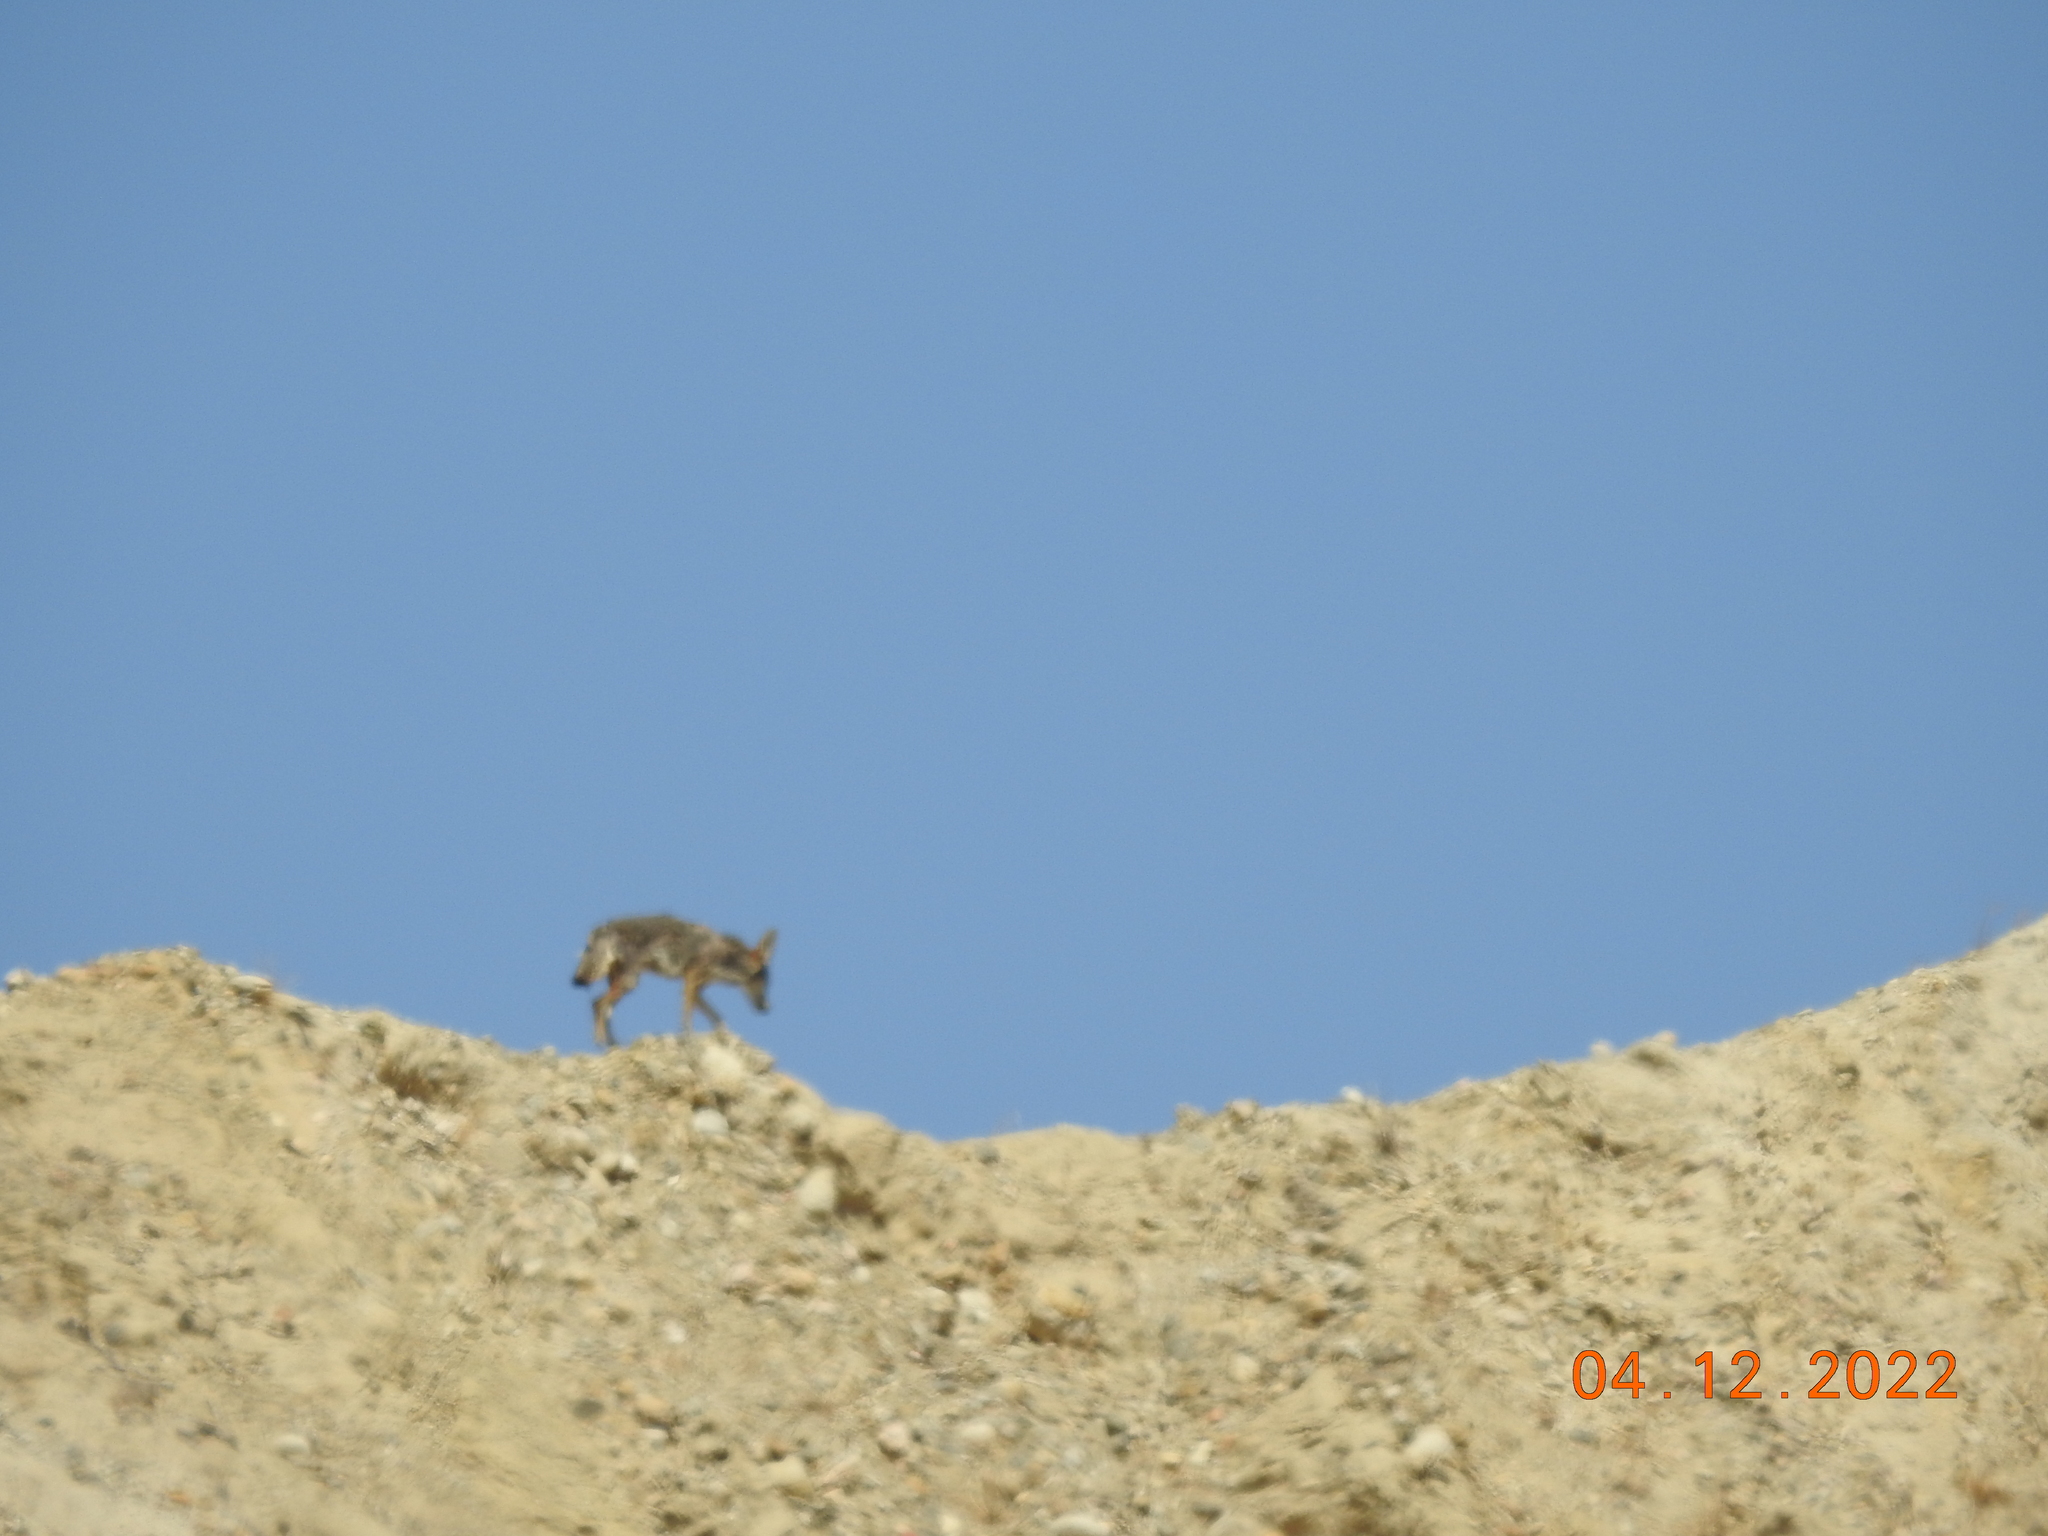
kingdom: Animalia
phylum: Chordata
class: Mammalia
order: Carnivora
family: Canidae
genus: Canis
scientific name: Canis latrans
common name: Coyote
